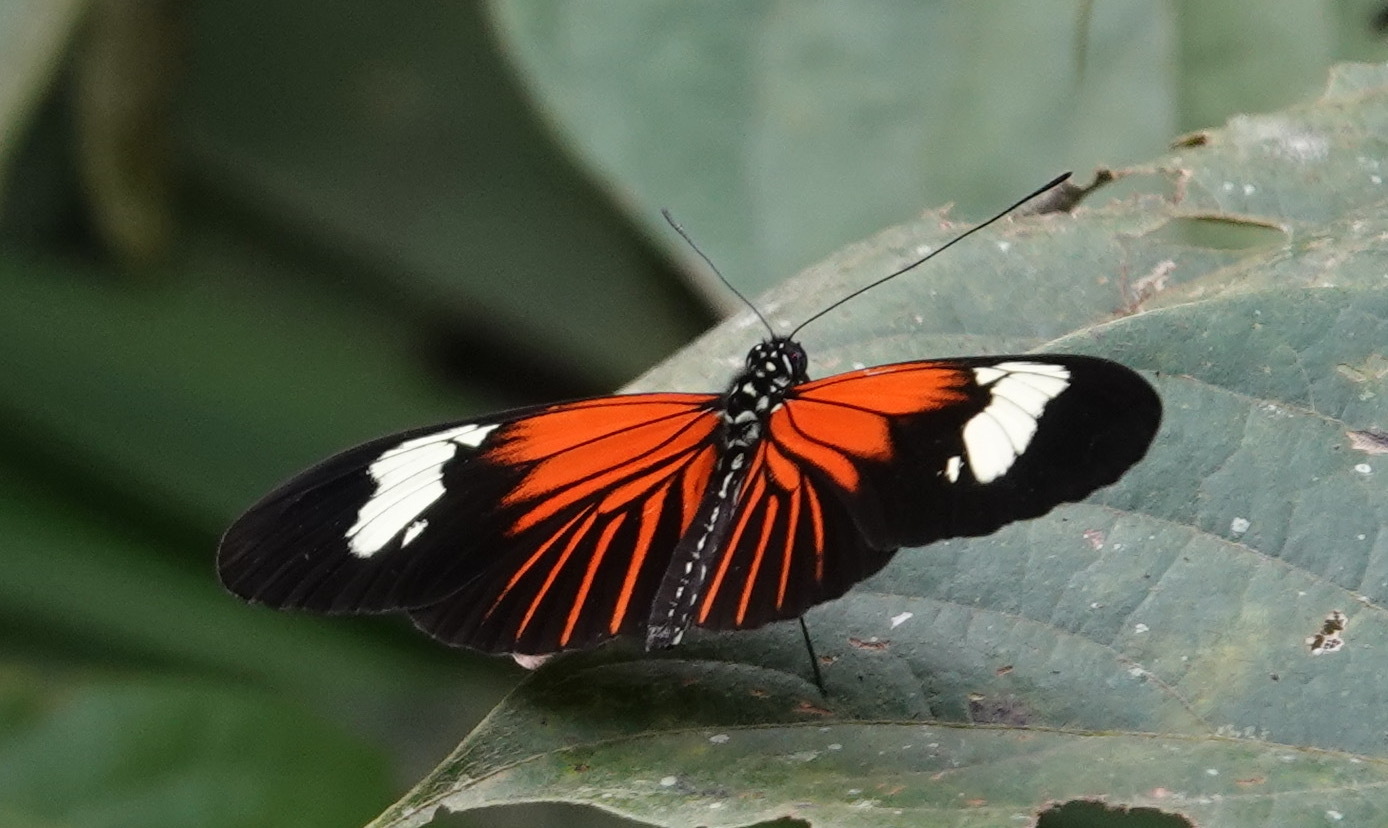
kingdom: Animalia
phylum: Arthropoda
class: Insecta
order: Lepidoptera
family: Nymphalidae
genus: Heliconius
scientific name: Heliconius erato
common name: Common patch longwing
